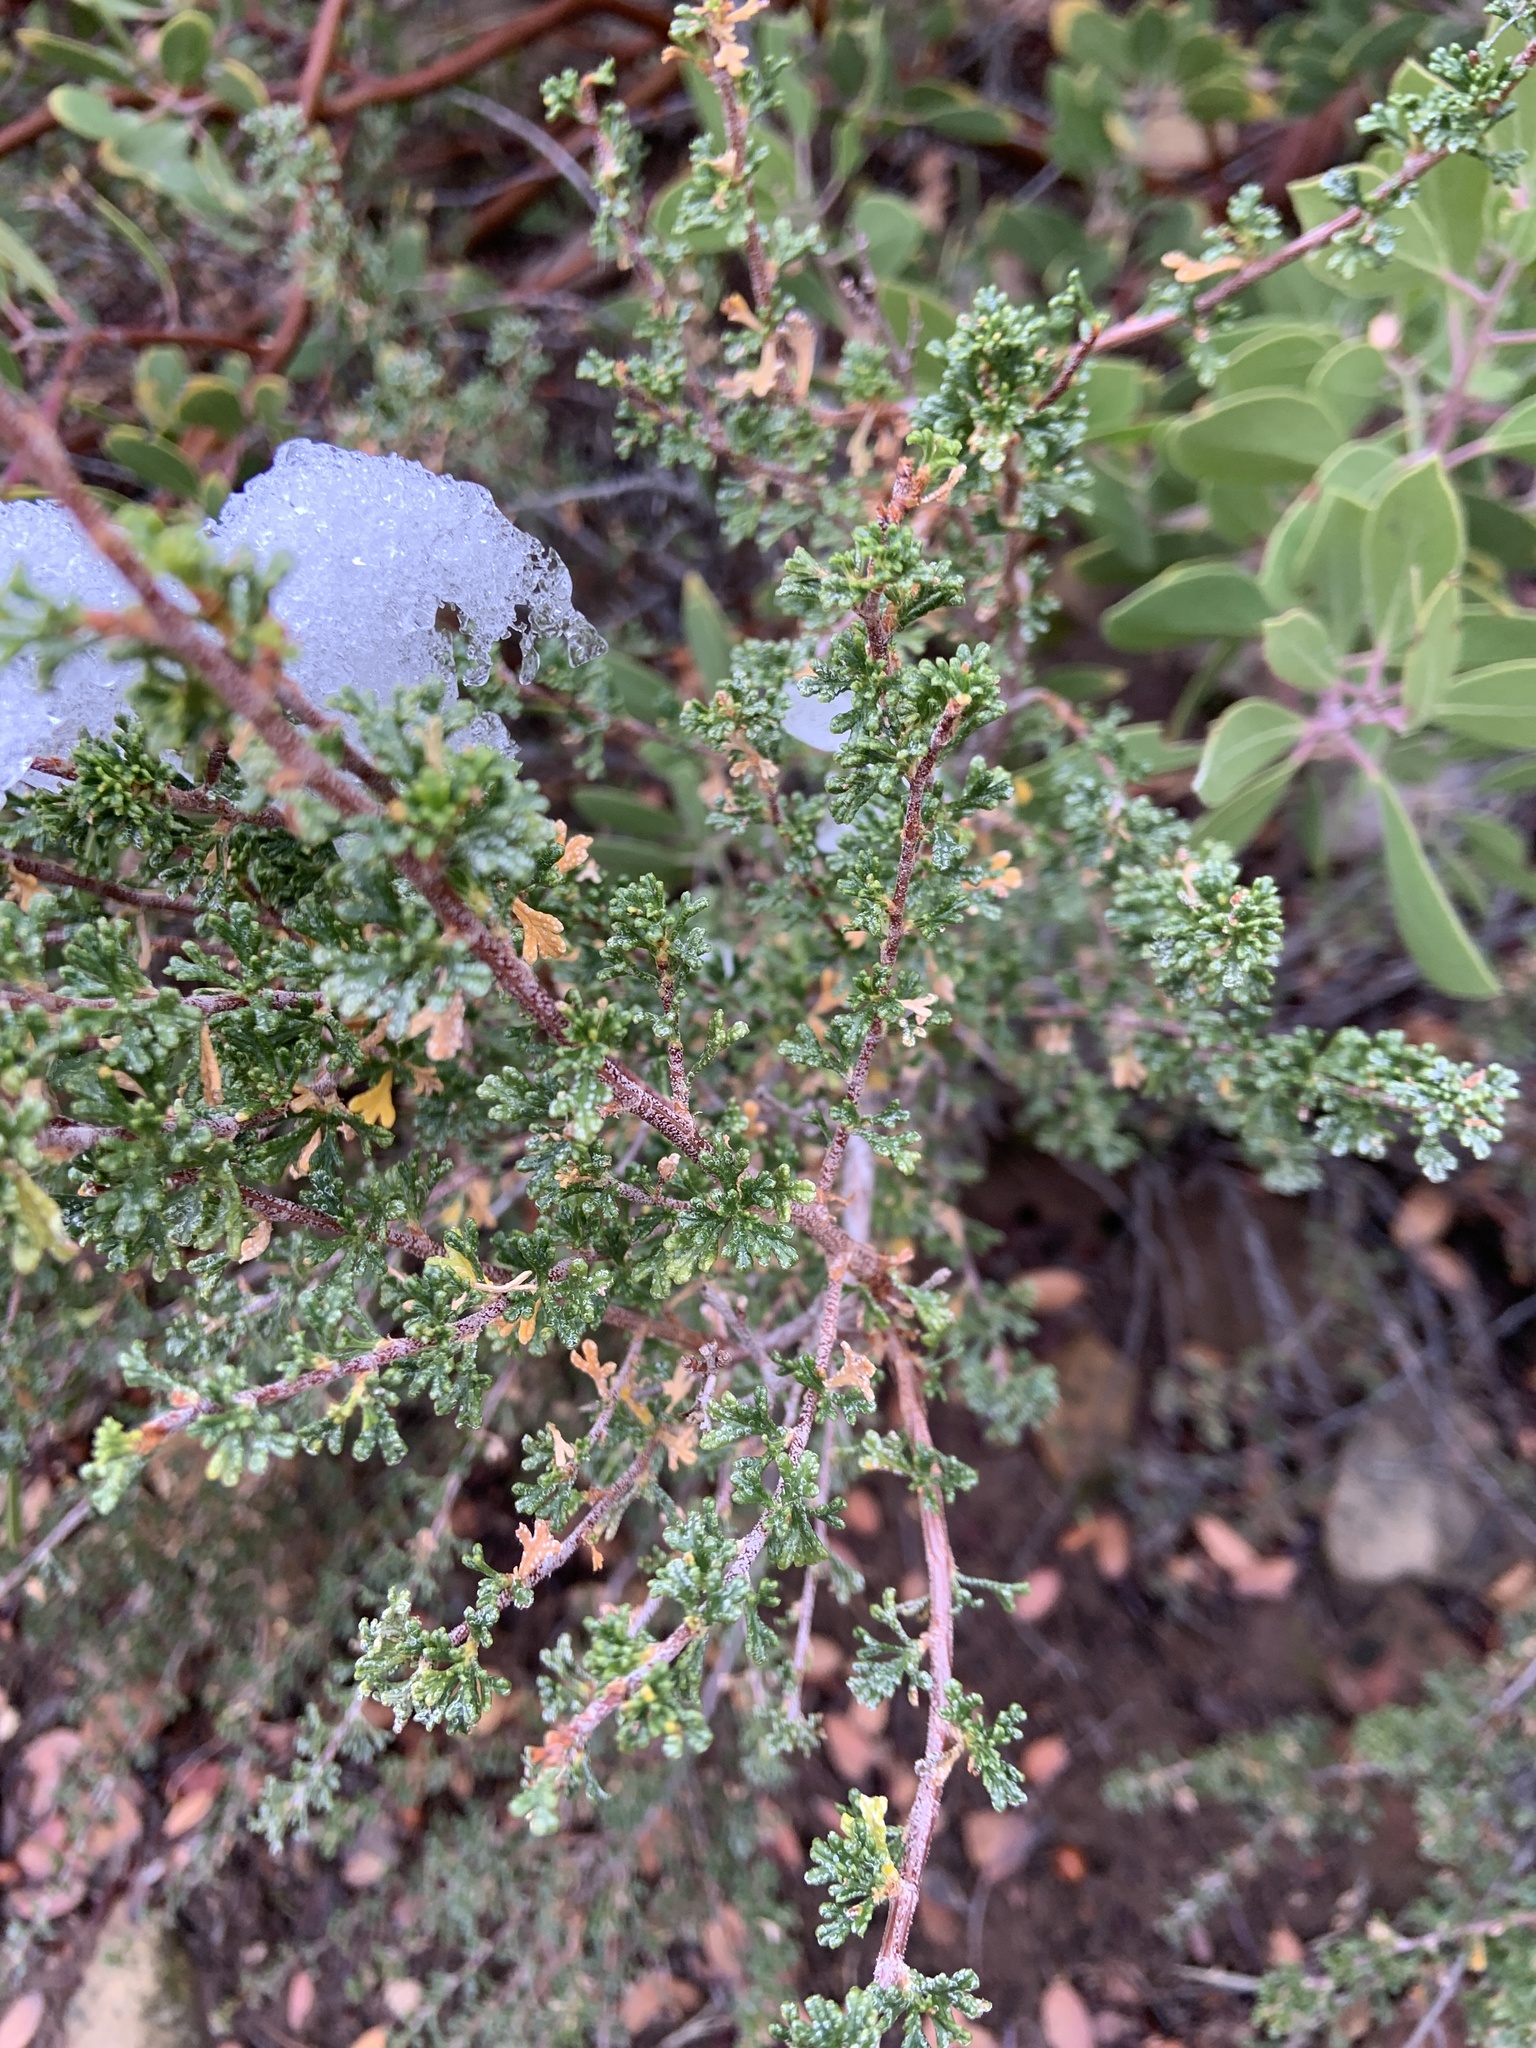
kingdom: Plantae
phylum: Tracheophyta
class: Magnoliopsida
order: Rosales
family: Rosaceae
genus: Purshia
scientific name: Purshia glandulosa
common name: Desert bitterbrush
